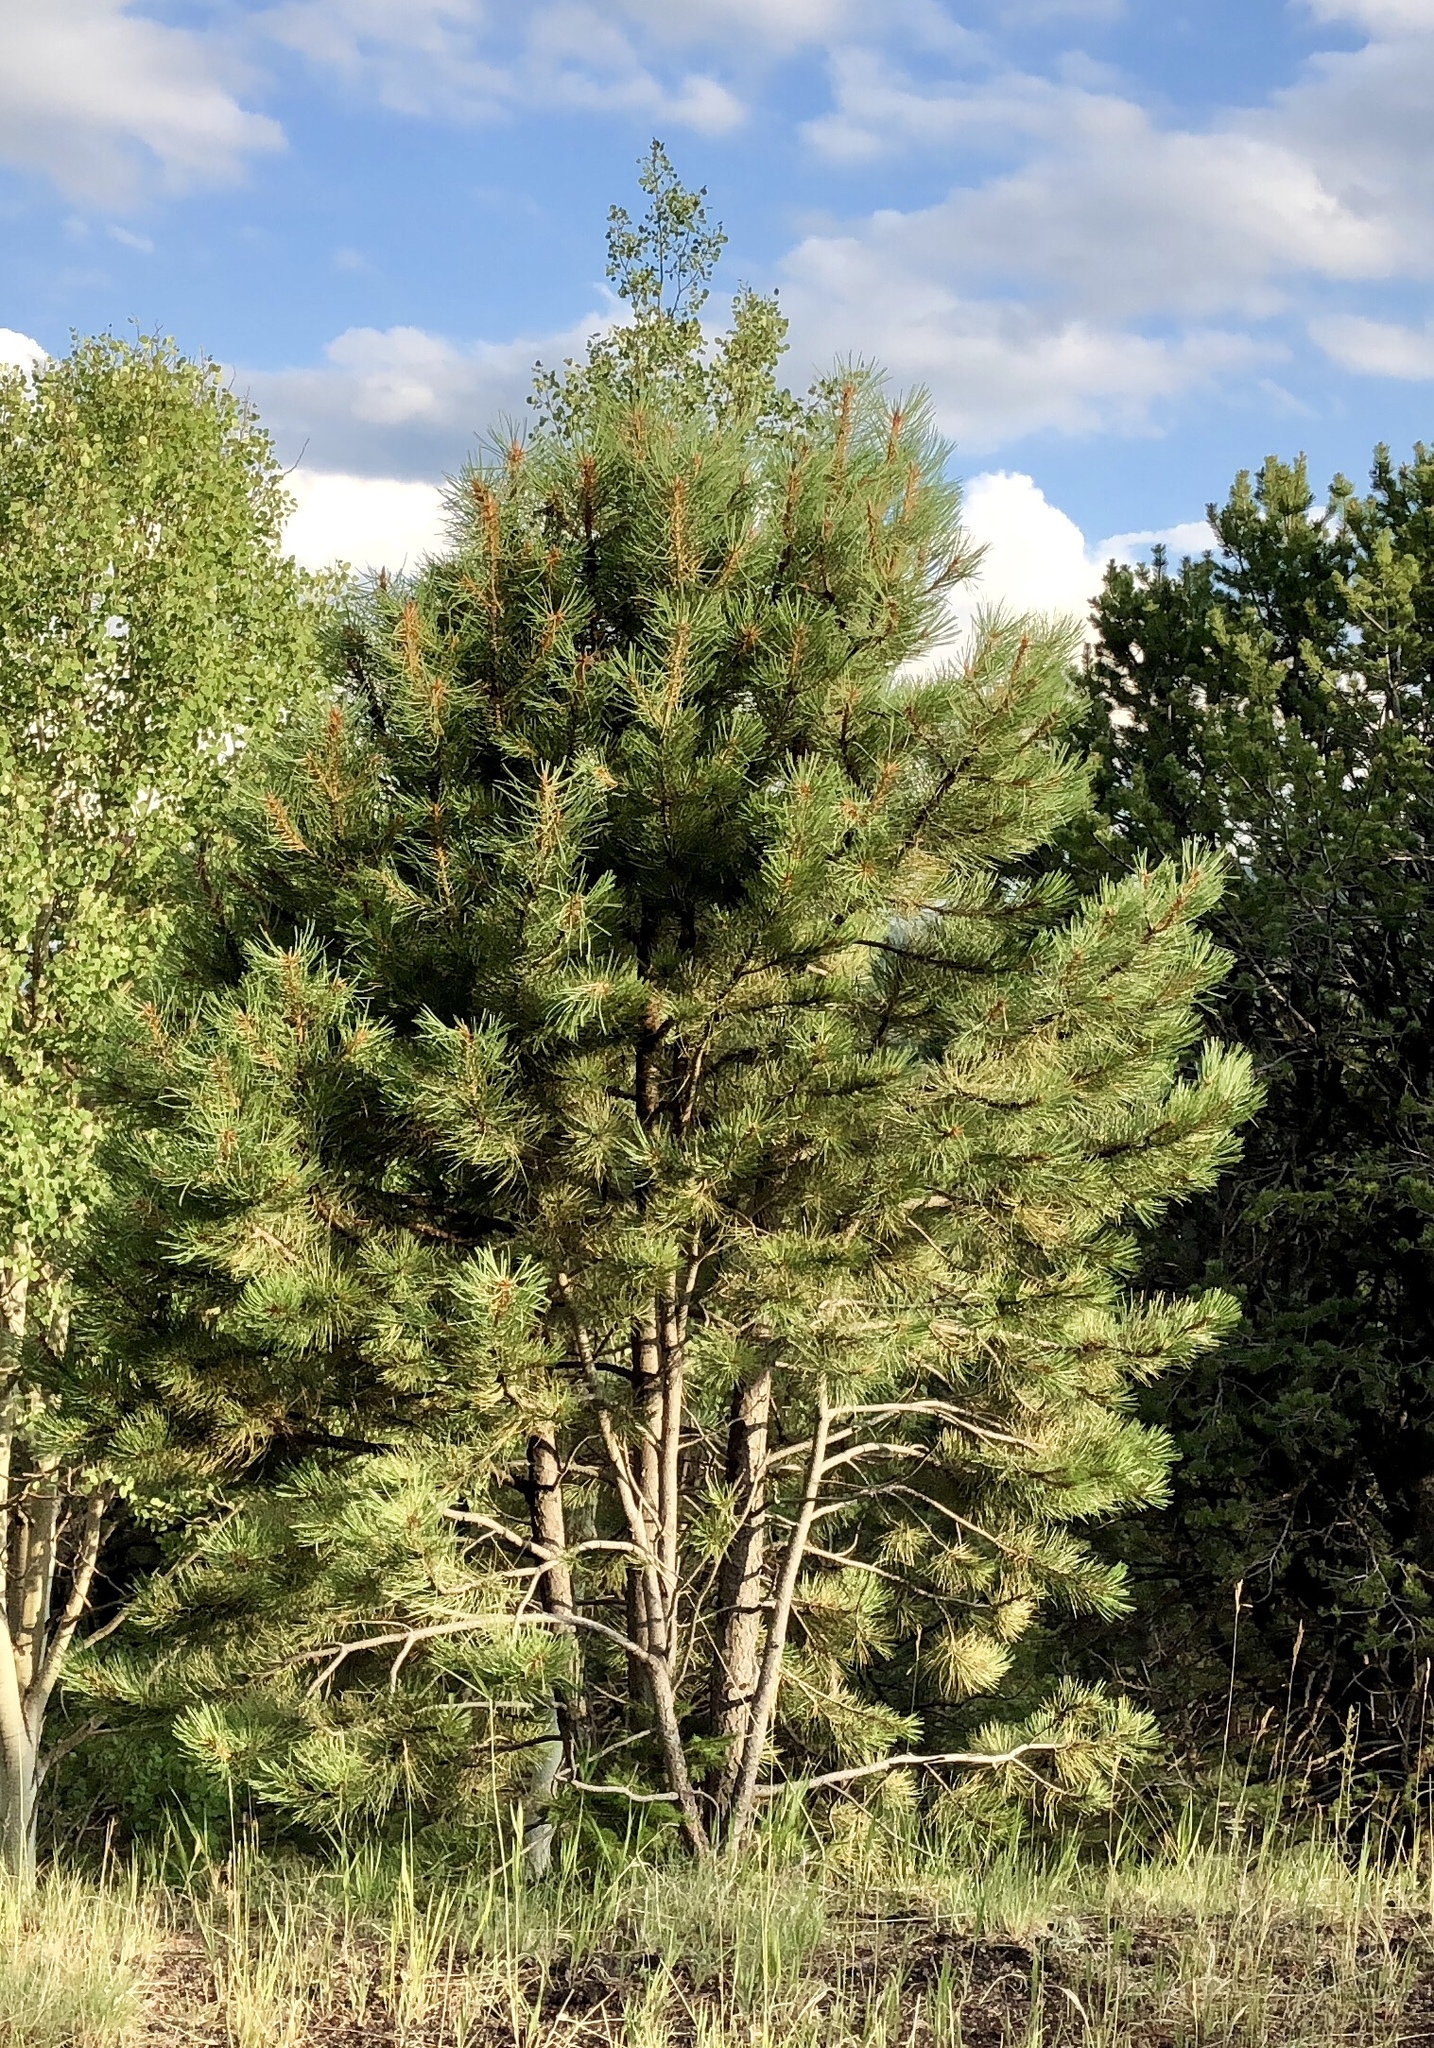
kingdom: Plantae
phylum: Tracheophyta
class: Pinopsida
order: Pinales
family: Pinaceae
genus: Pinus
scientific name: Pinus ponderosa
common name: Western yellow-pine
